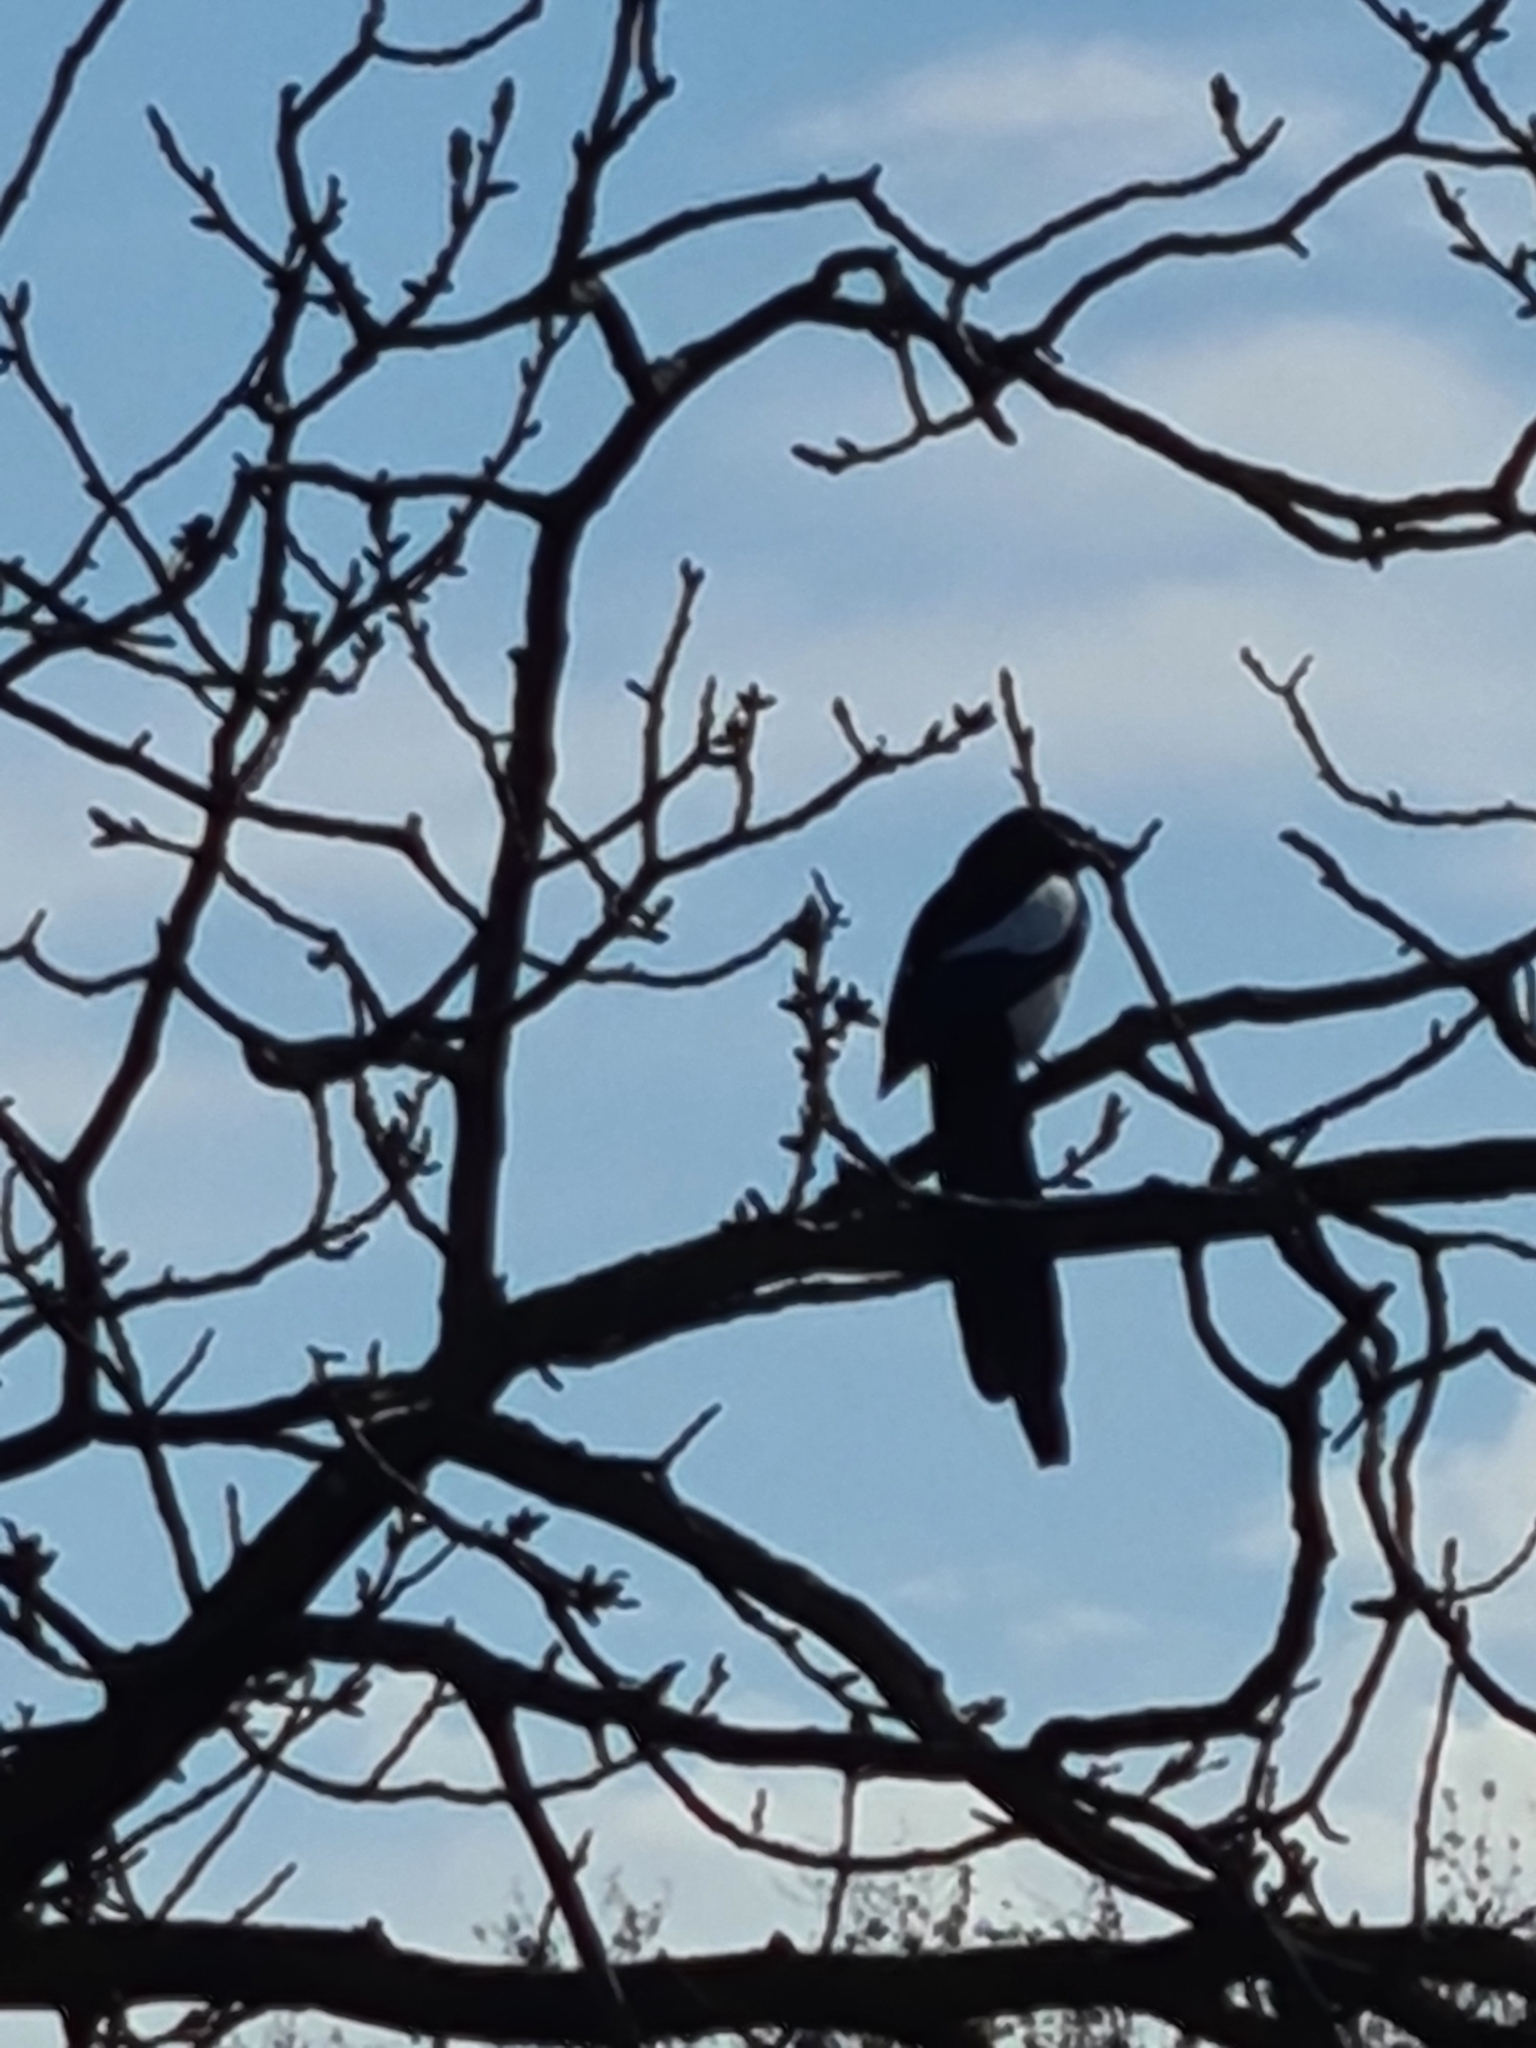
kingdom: Animalia
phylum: Chordata
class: Aves
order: Passeriformes
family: Corvidae
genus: Pica
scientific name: Pica pica
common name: Eurasian magpie
